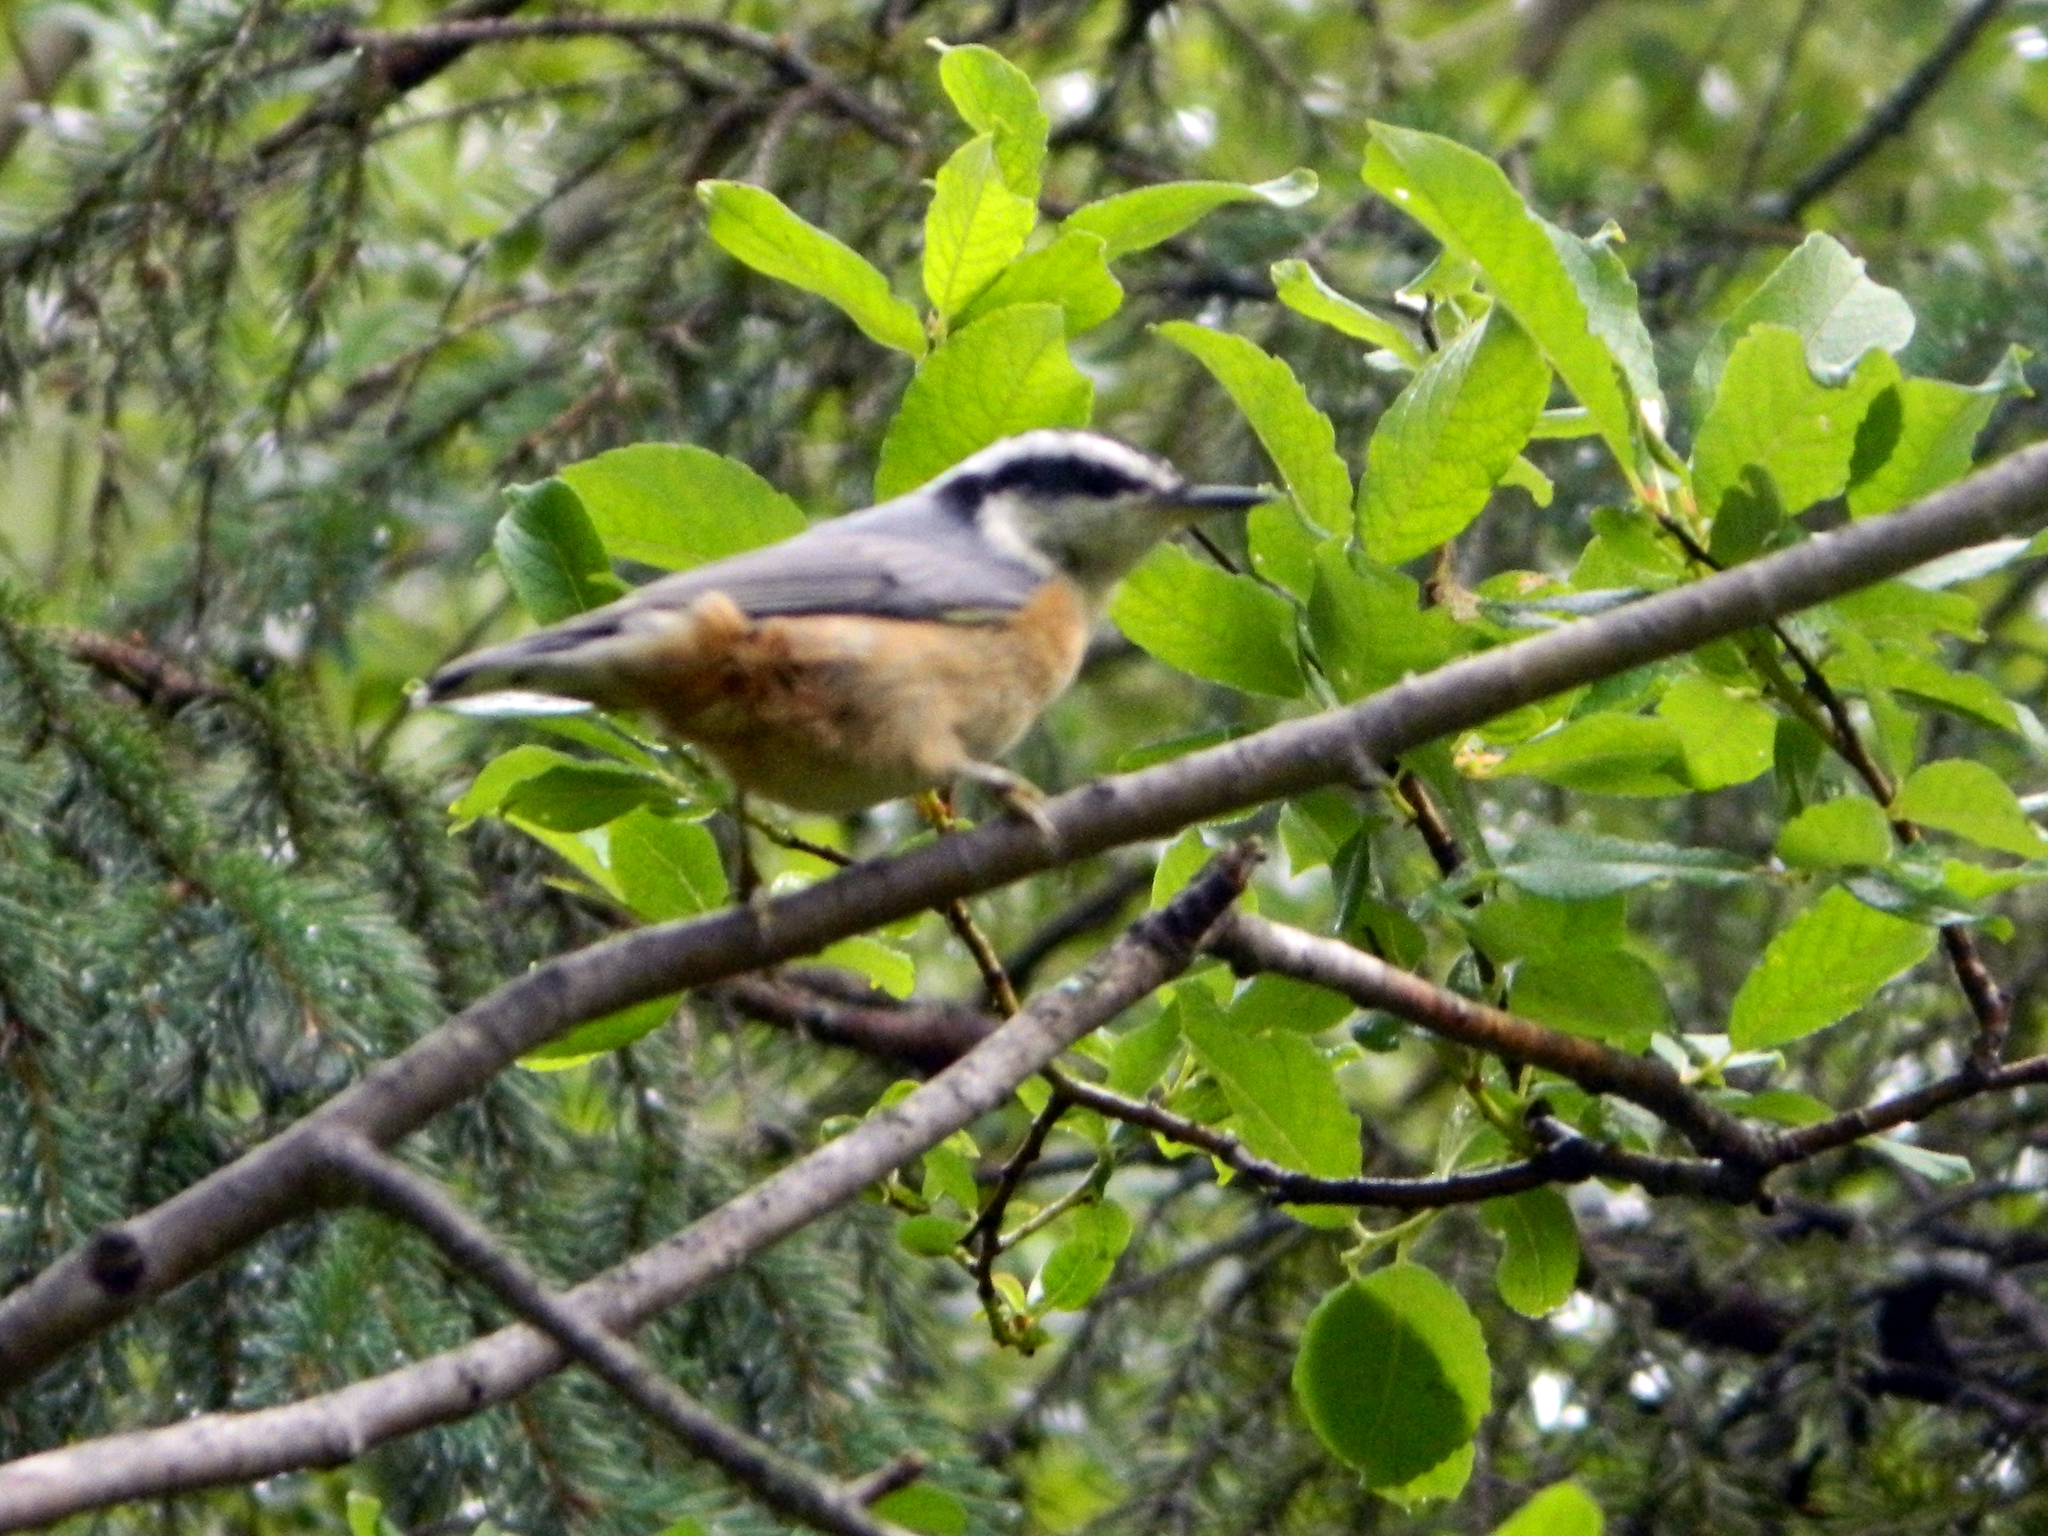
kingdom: Animalia
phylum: Chordata
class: Aves
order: Passeriformes
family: Sittidae
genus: Sitta
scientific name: Sitta canadensis
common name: Red-breasted nuthatch
